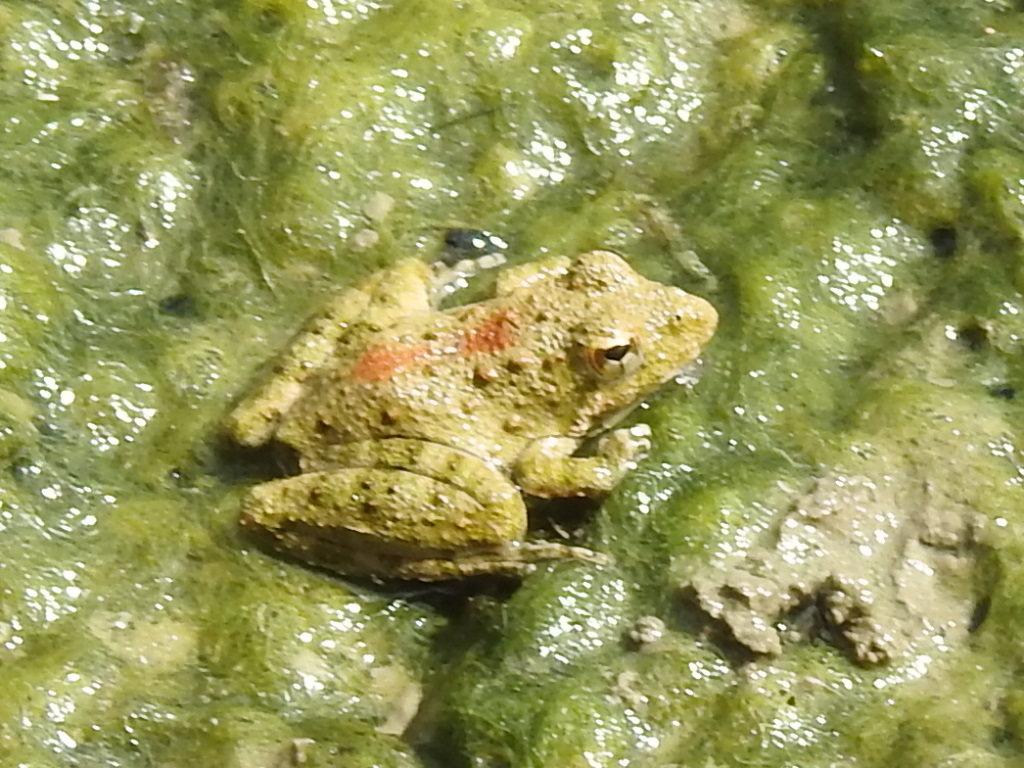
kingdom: Animalia
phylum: Chordata
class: Amphibia
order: Anura
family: Hylidae
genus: Acris
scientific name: Acris blanchardi
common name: Blanchard's cricket frog
